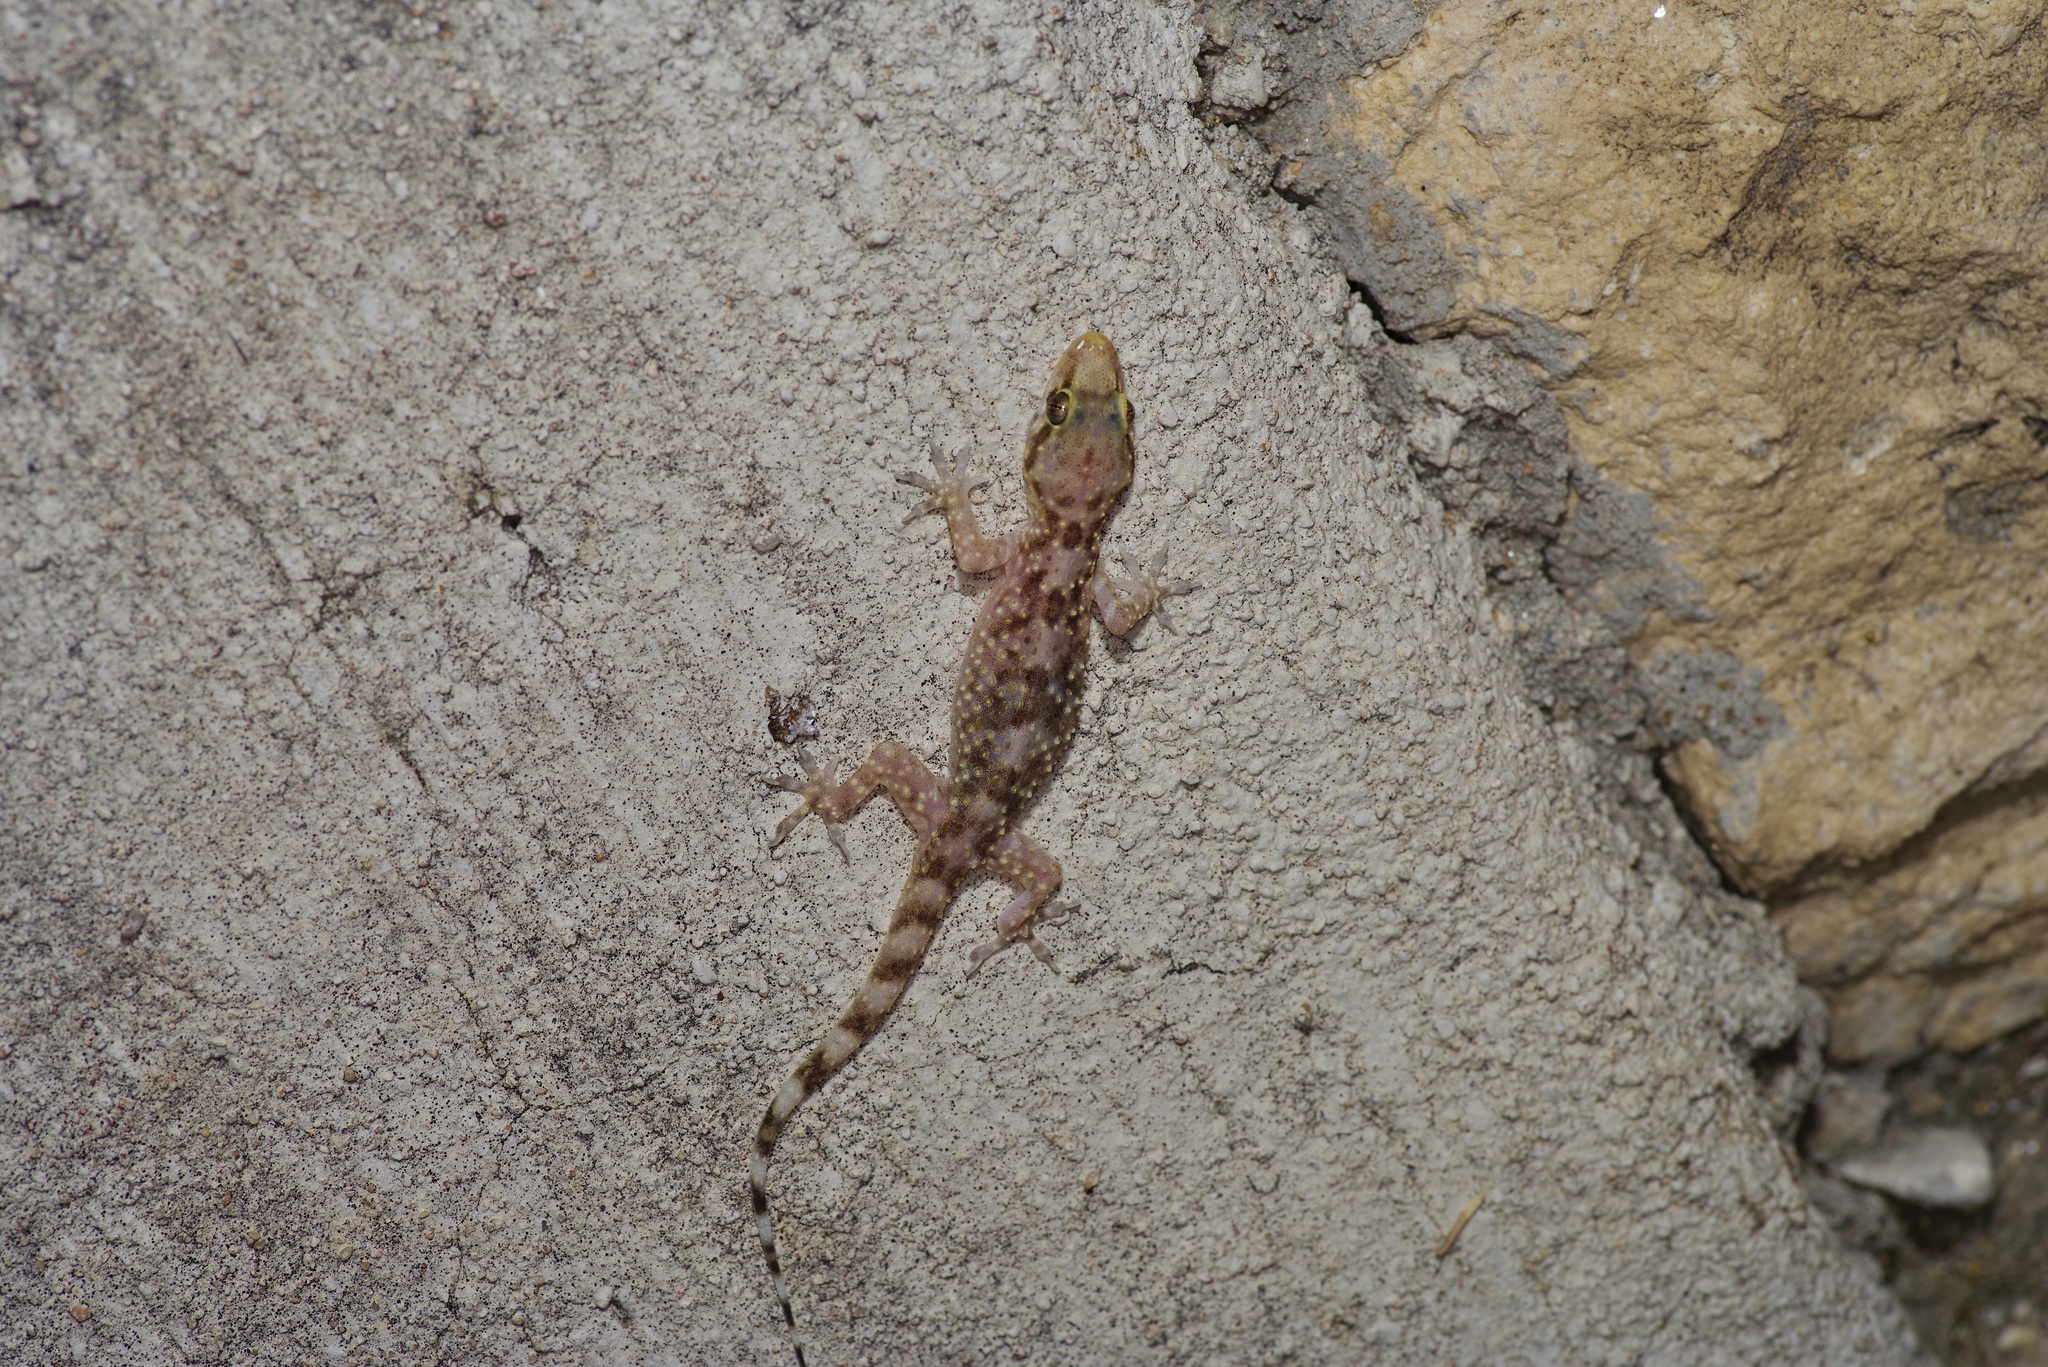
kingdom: Animalia
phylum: Chordata
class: Squamata
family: Gekkonidae
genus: Hemidactylus
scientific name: Hemidactylus turcicus
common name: Turkish gecko
